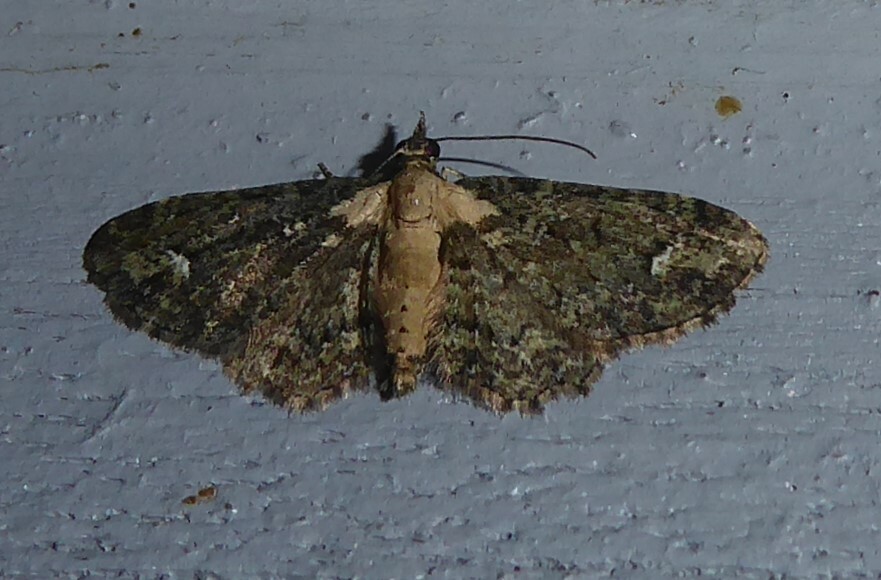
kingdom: Animalia
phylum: Arthropoda
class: Insecta
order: Lepidoptera
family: Geometridae
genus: Pasiphilodes
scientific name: Pasiphilodes testulata
